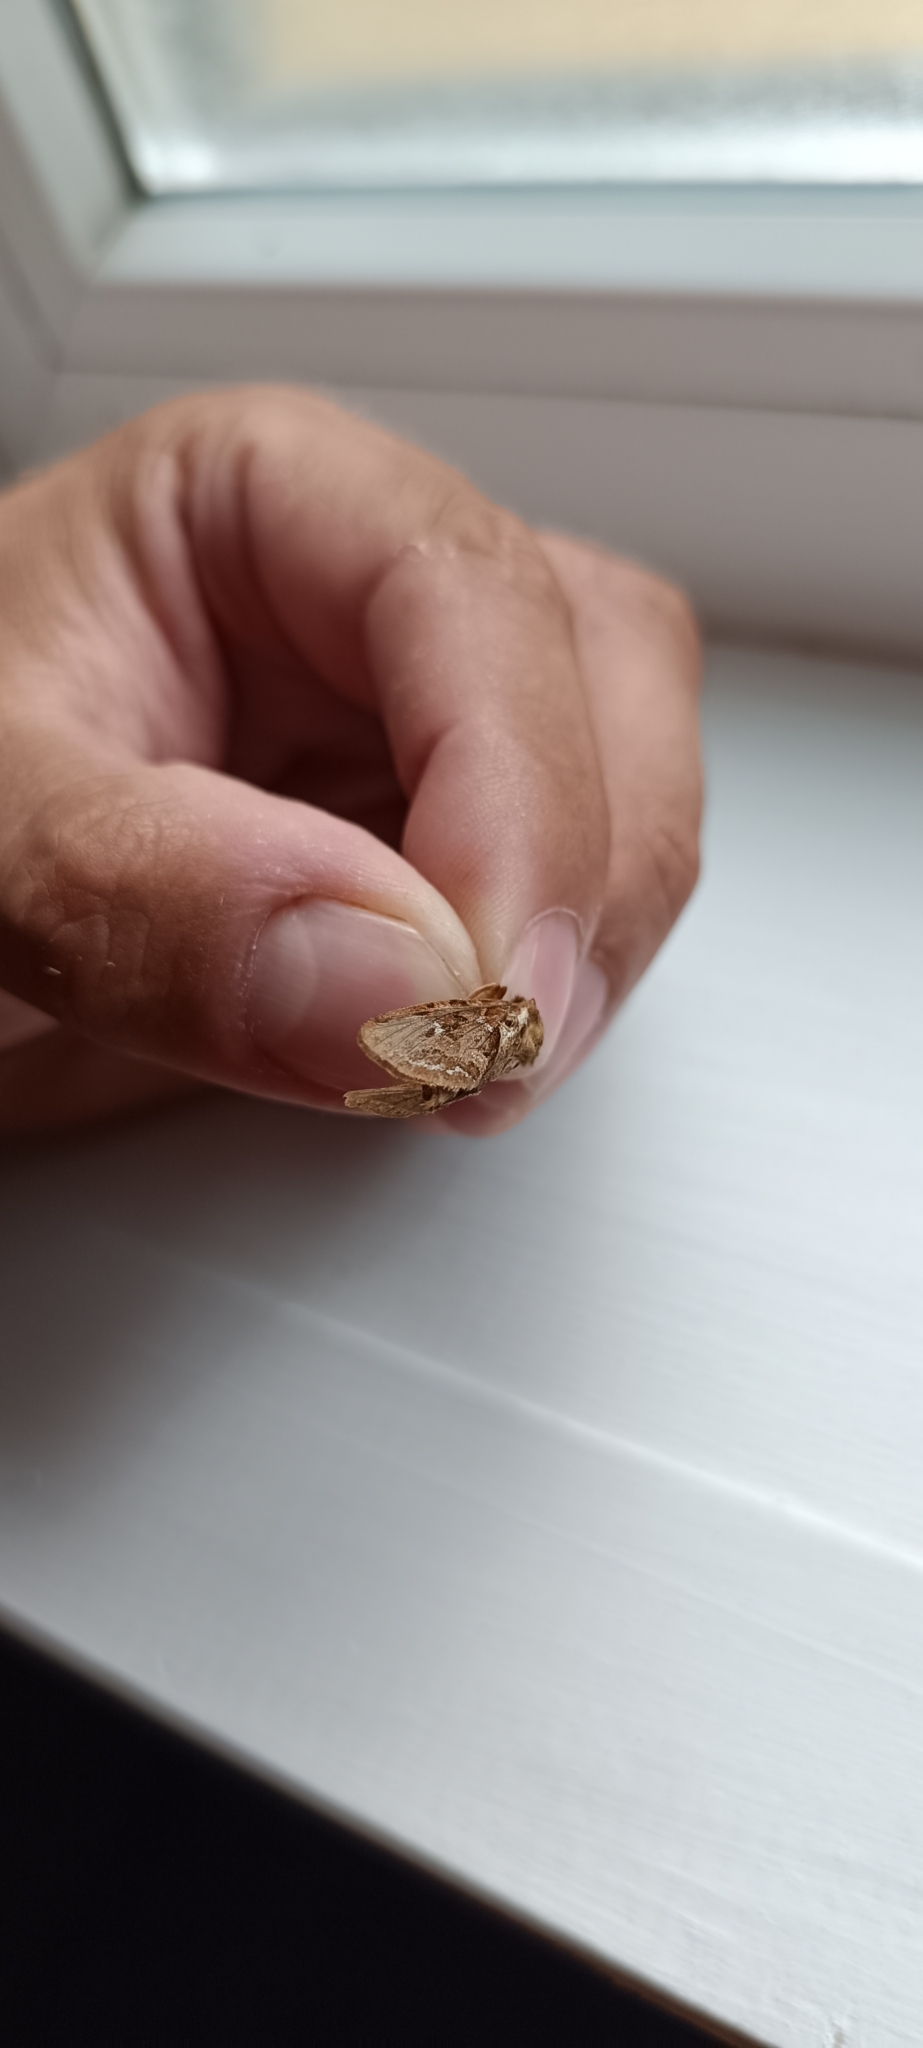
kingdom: Animalia
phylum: Arthropoda
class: Insecta
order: Lepidoptera
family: Hepialidae
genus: Korscheltellus
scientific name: Korscheltellus fusconebulosus
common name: Map-winged swift
